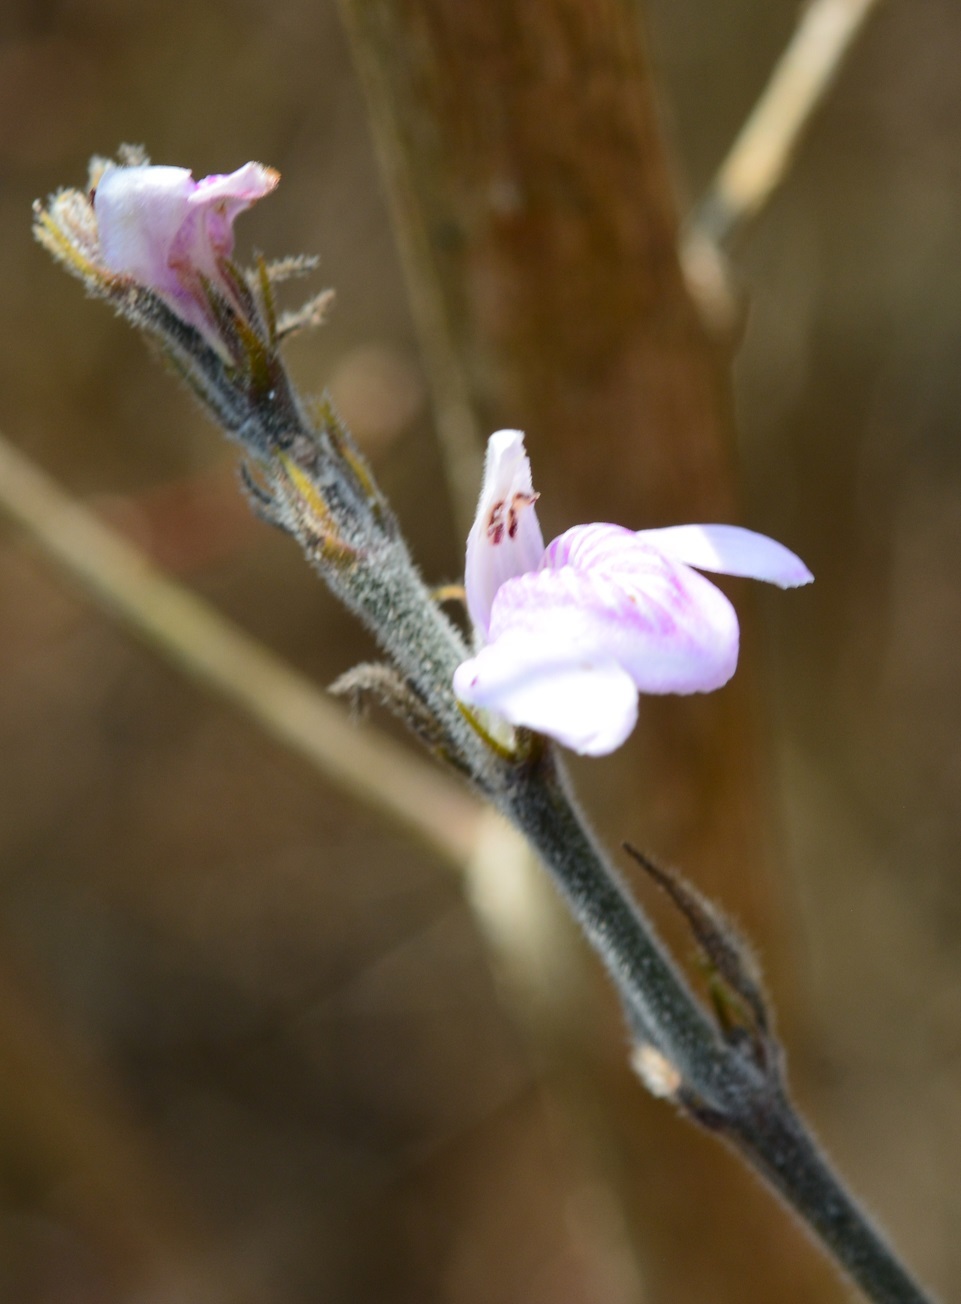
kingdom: Plantae
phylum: Tracheophyta
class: Magnoliopsida
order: Lamiales
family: Acanthaceae
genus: Dianthera
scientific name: Dianthera breviflora
